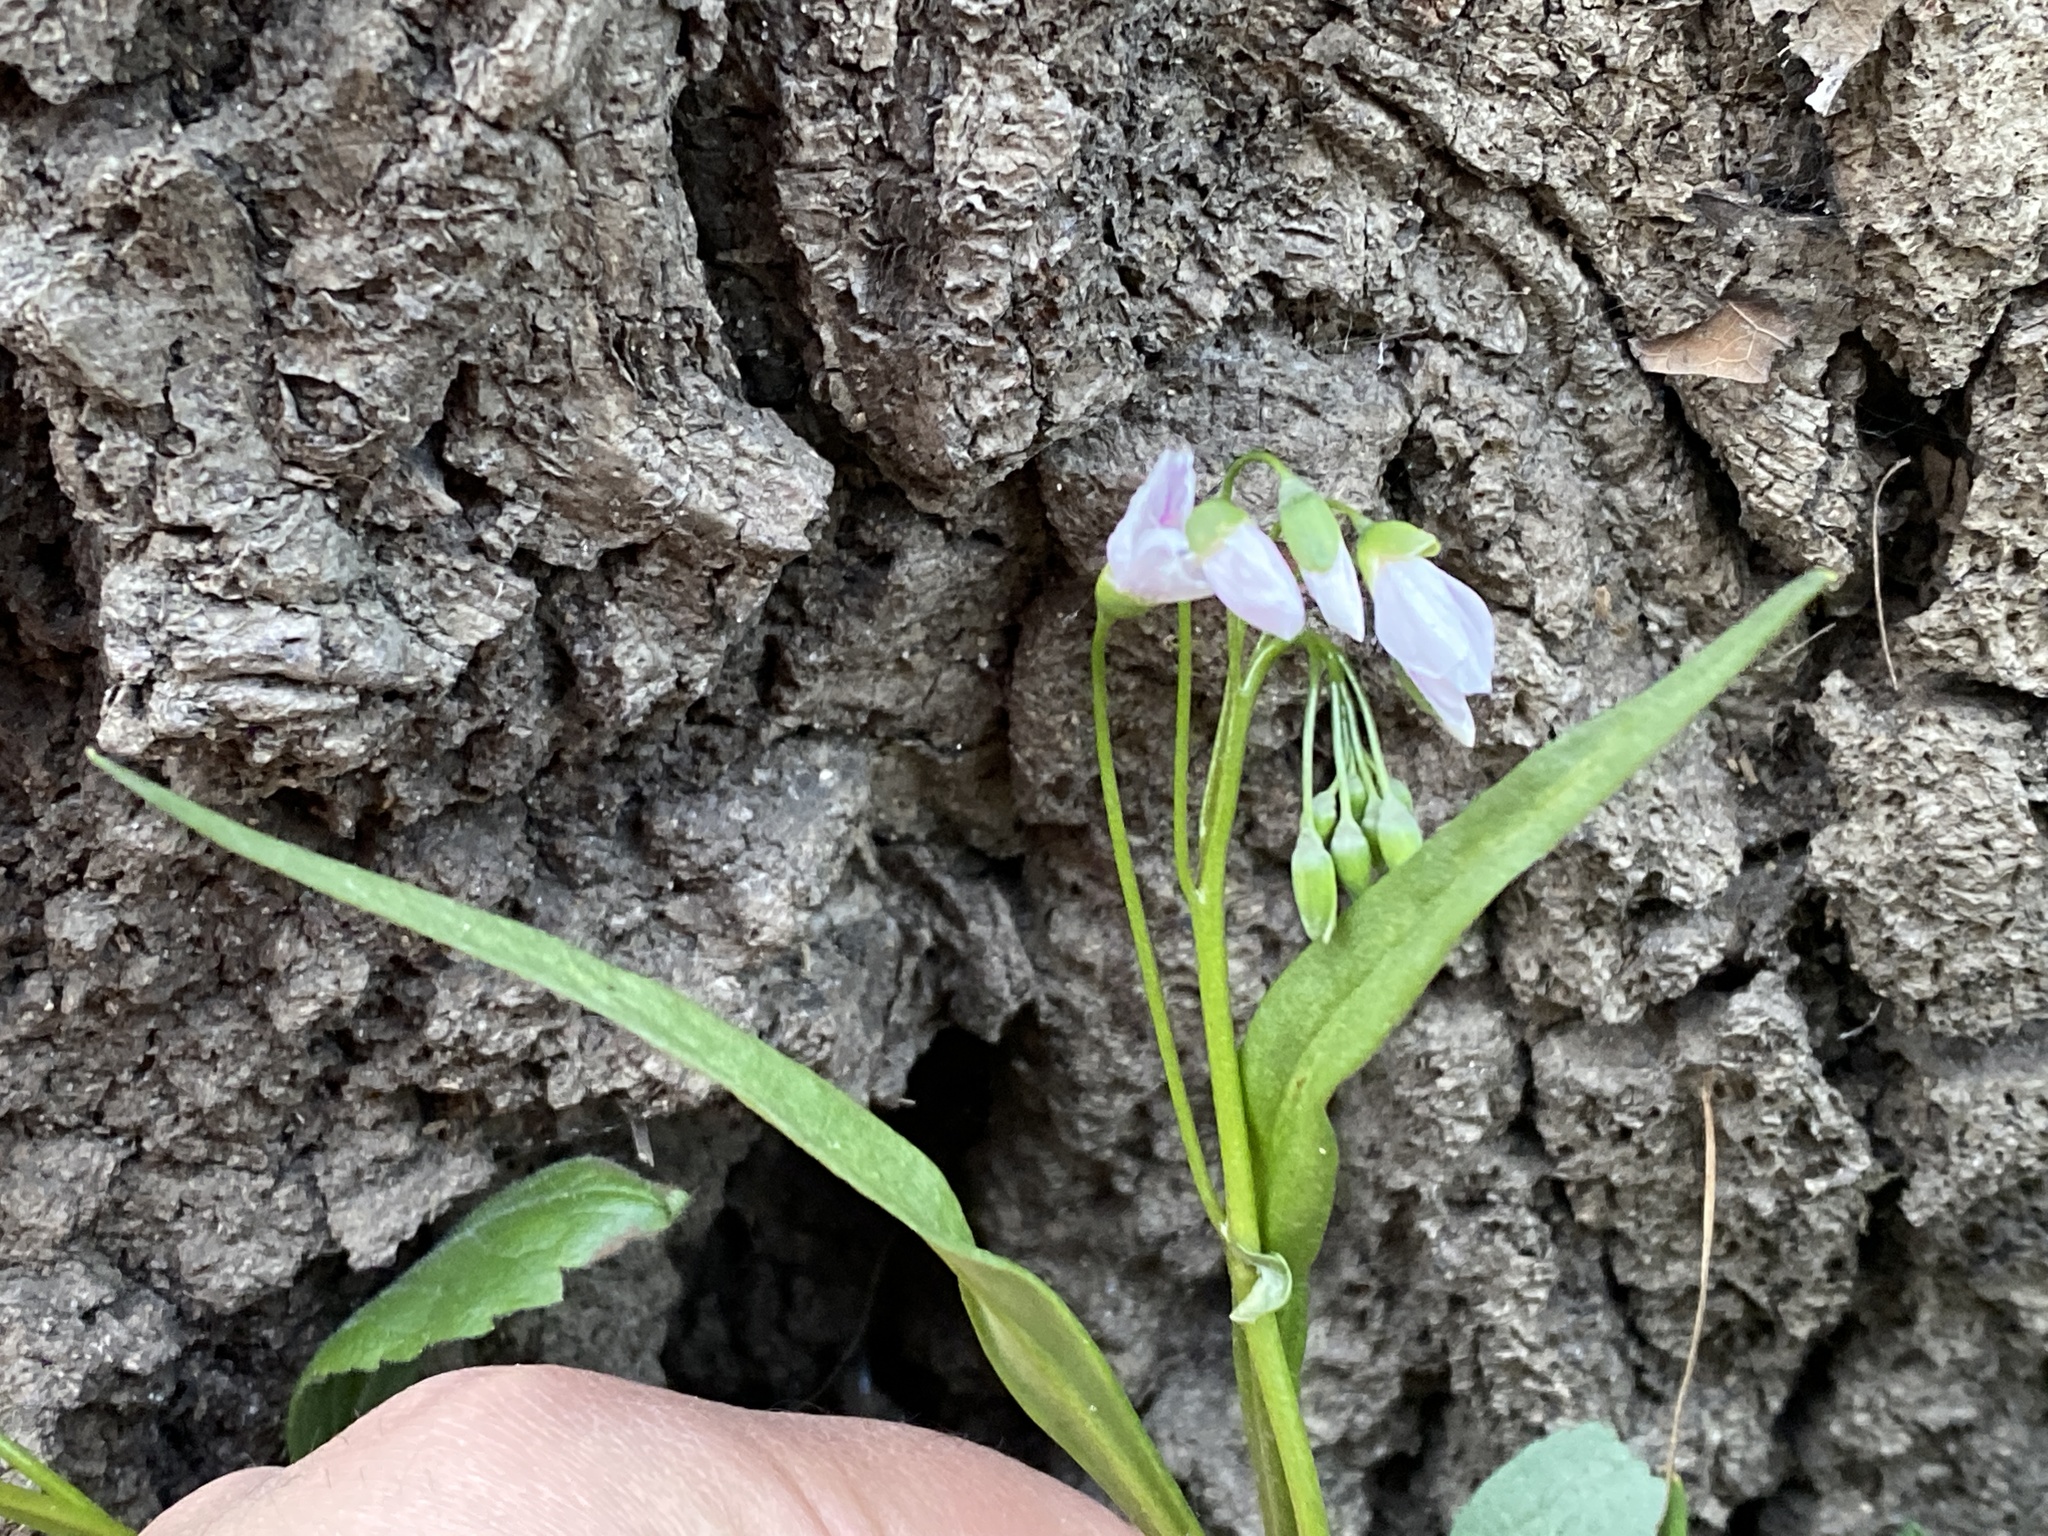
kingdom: Plantae
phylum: Tracheophyta
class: Magnoliopsida
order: Caryophyllales
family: Montiaceae
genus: Claytonia
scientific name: Claytonia virginica
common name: Virginia springbeauty
